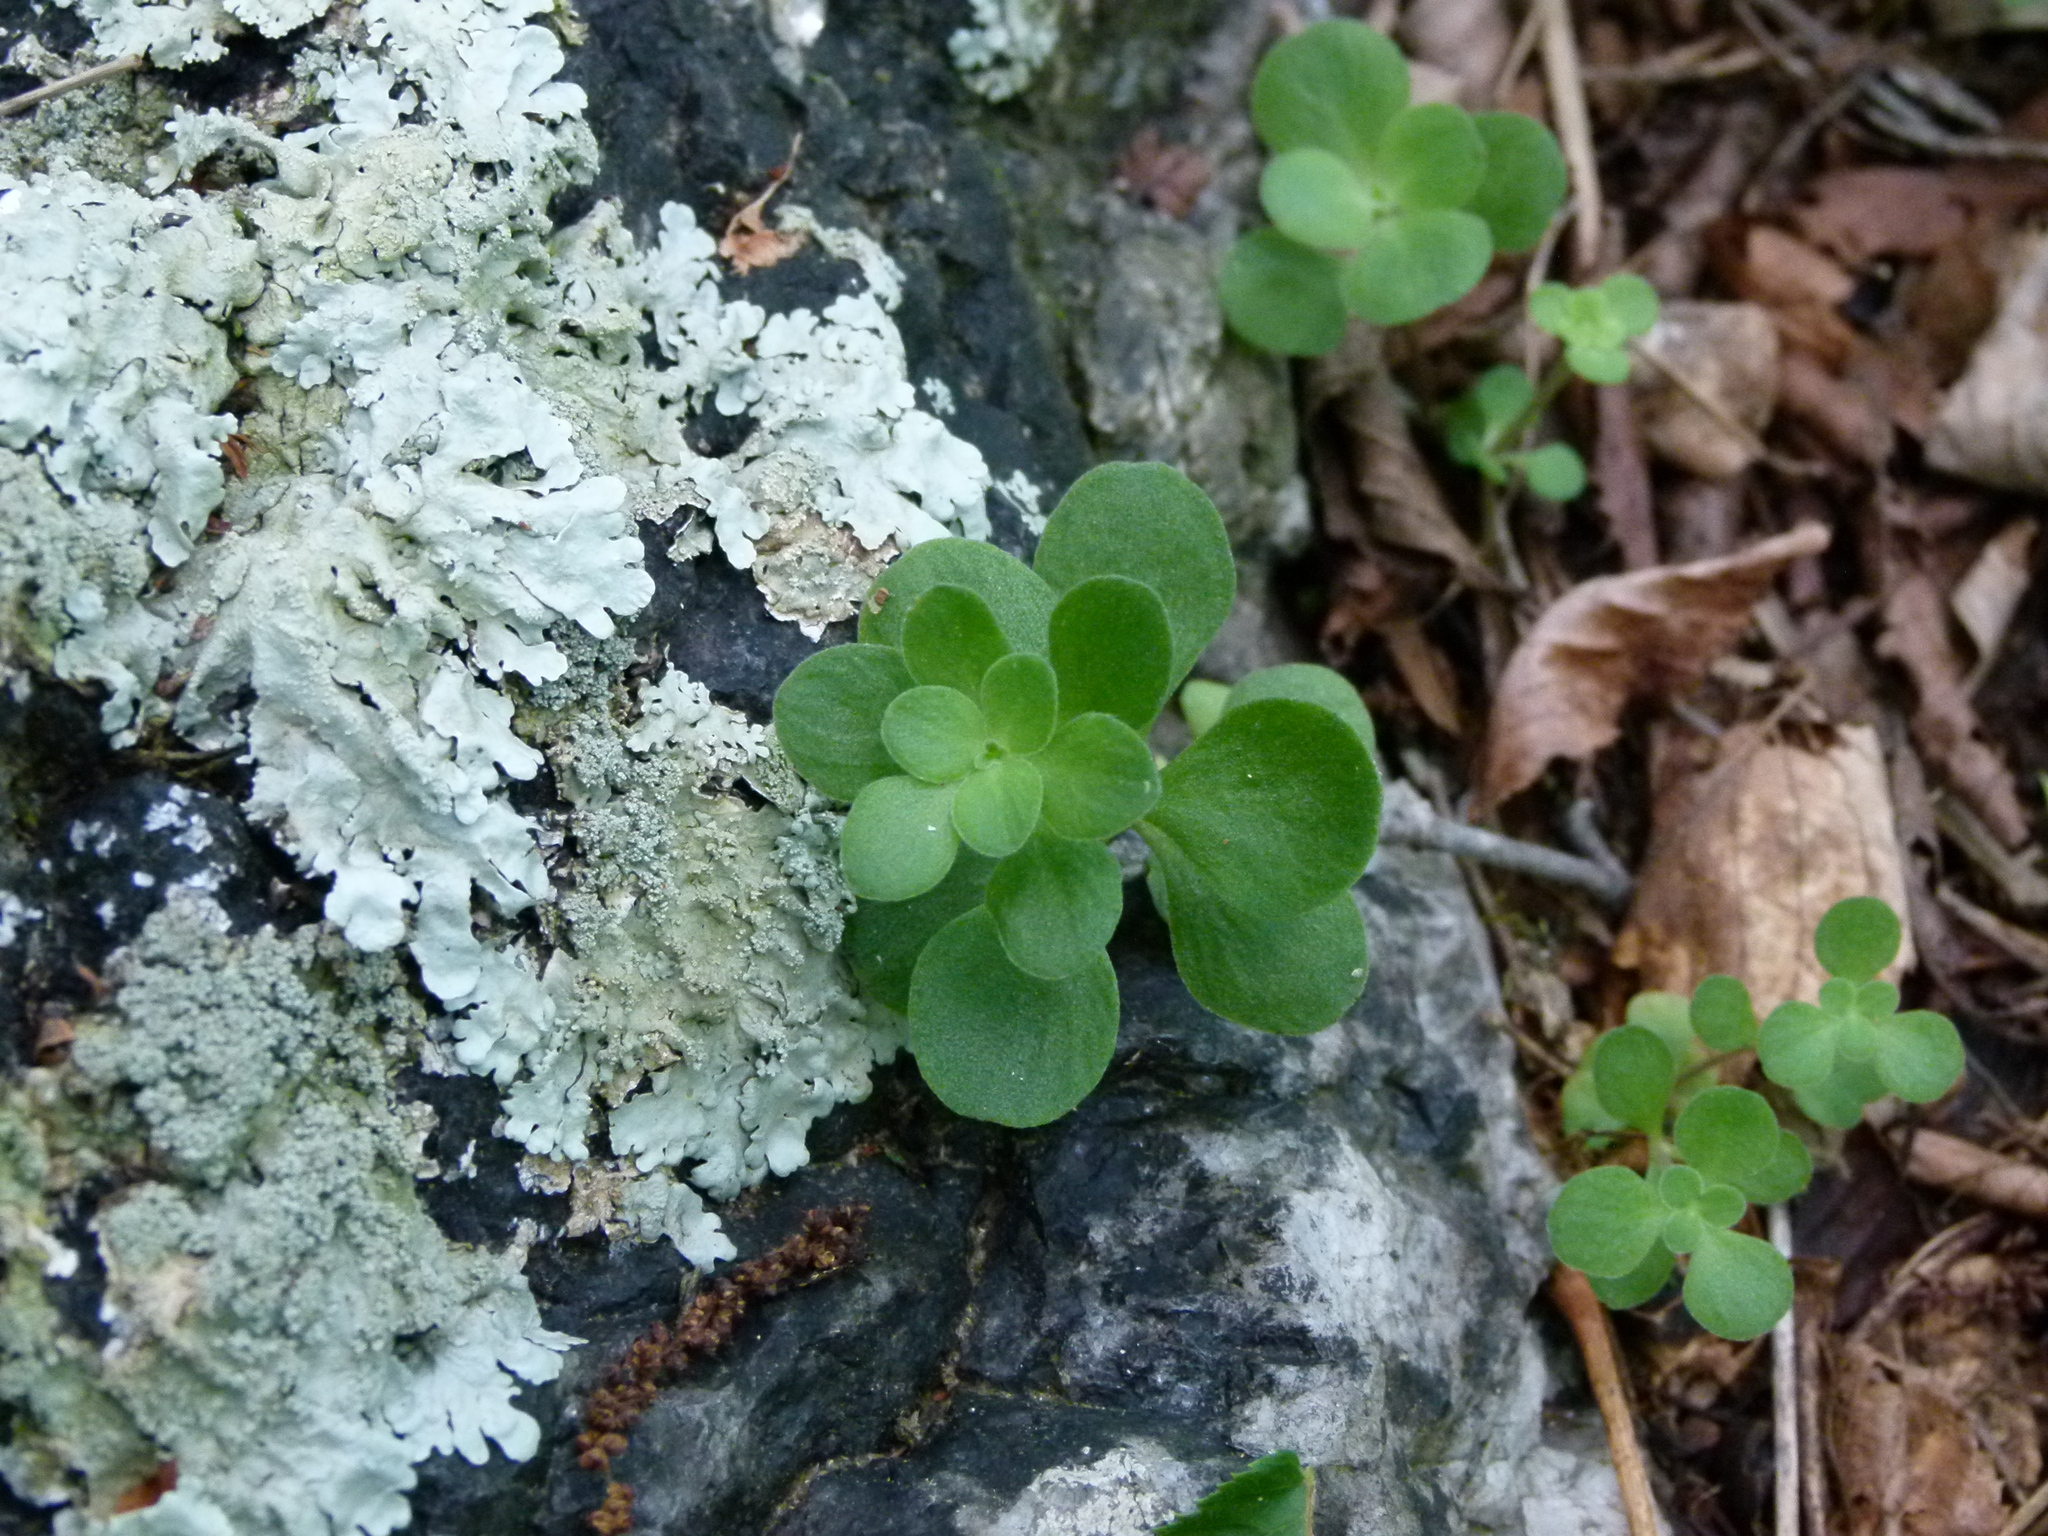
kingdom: Plantae
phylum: Tracheophyta
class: Magnoliopsida
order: Saxifragales
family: Crassulaceae
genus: Sedum
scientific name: Sedum ternatum
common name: Wild stonecrop
